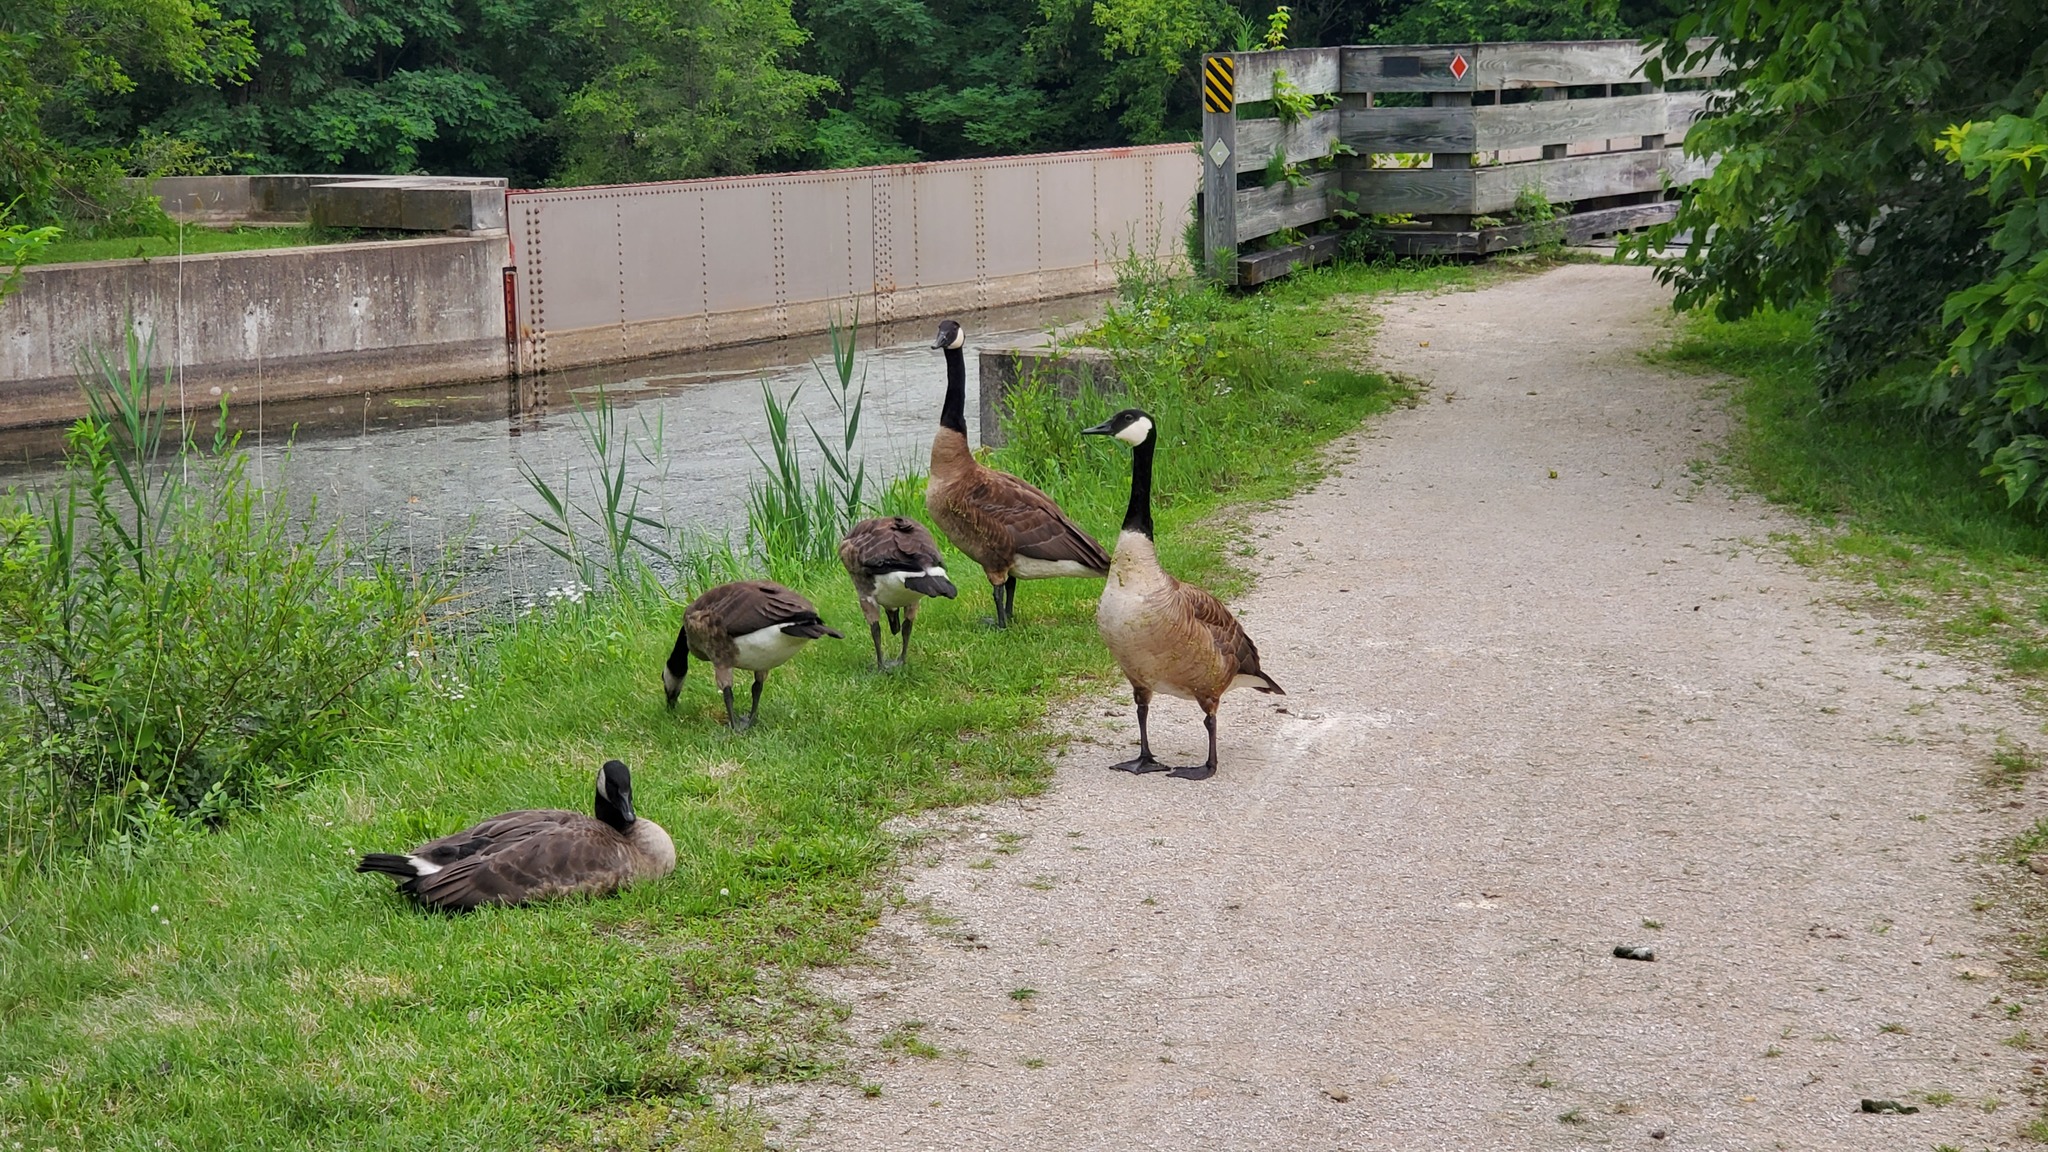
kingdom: Animalia
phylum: Chordata
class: Aves
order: Anseriformes
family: Anatidae
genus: Branta
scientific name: Branta canadensis
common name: Canada goose
